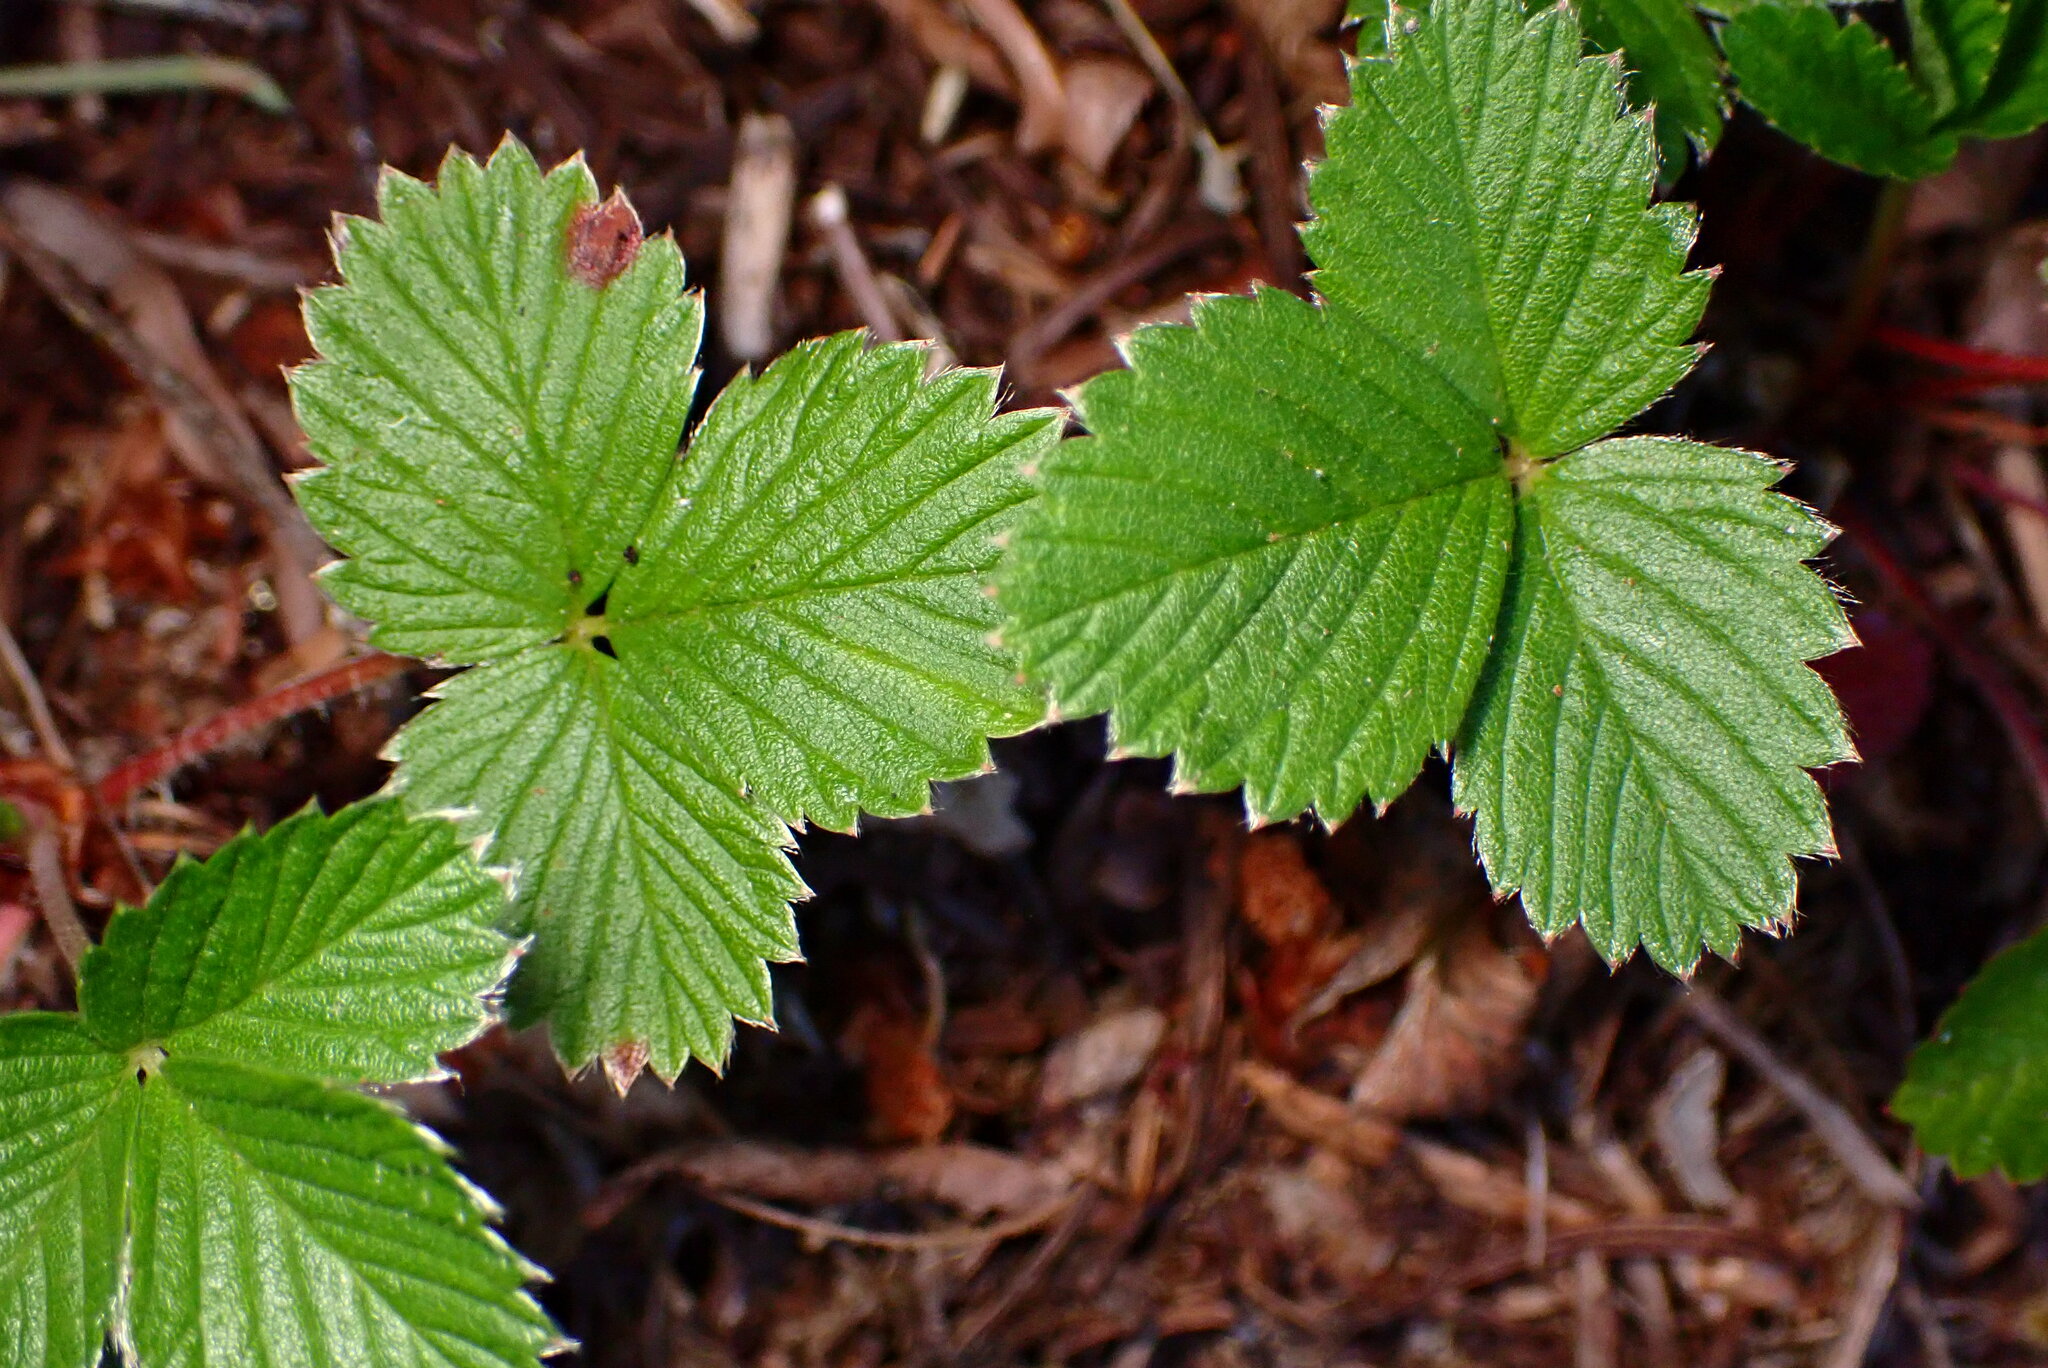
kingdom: Plantae
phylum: Tracheophyta
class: Magnoliopsida
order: Rosales
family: Rosaceae
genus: Fragaria
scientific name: Fragaria vesca
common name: Wild strawberry
